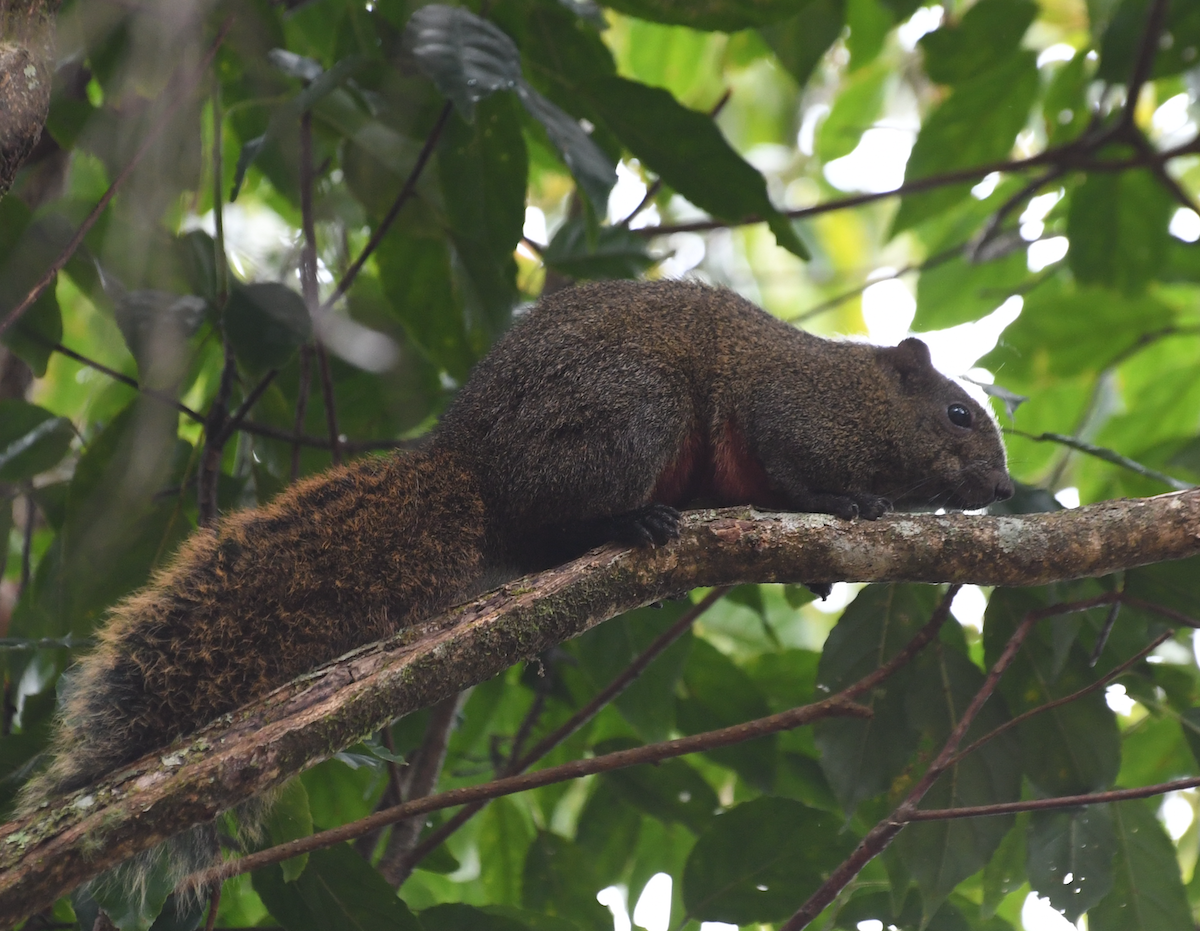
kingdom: Animalia
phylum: Chordata
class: Mammalia
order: Rodentia
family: Sciuridae
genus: Callosciurus
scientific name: Callosciurus erythraeus
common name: Pallas's squirrel
